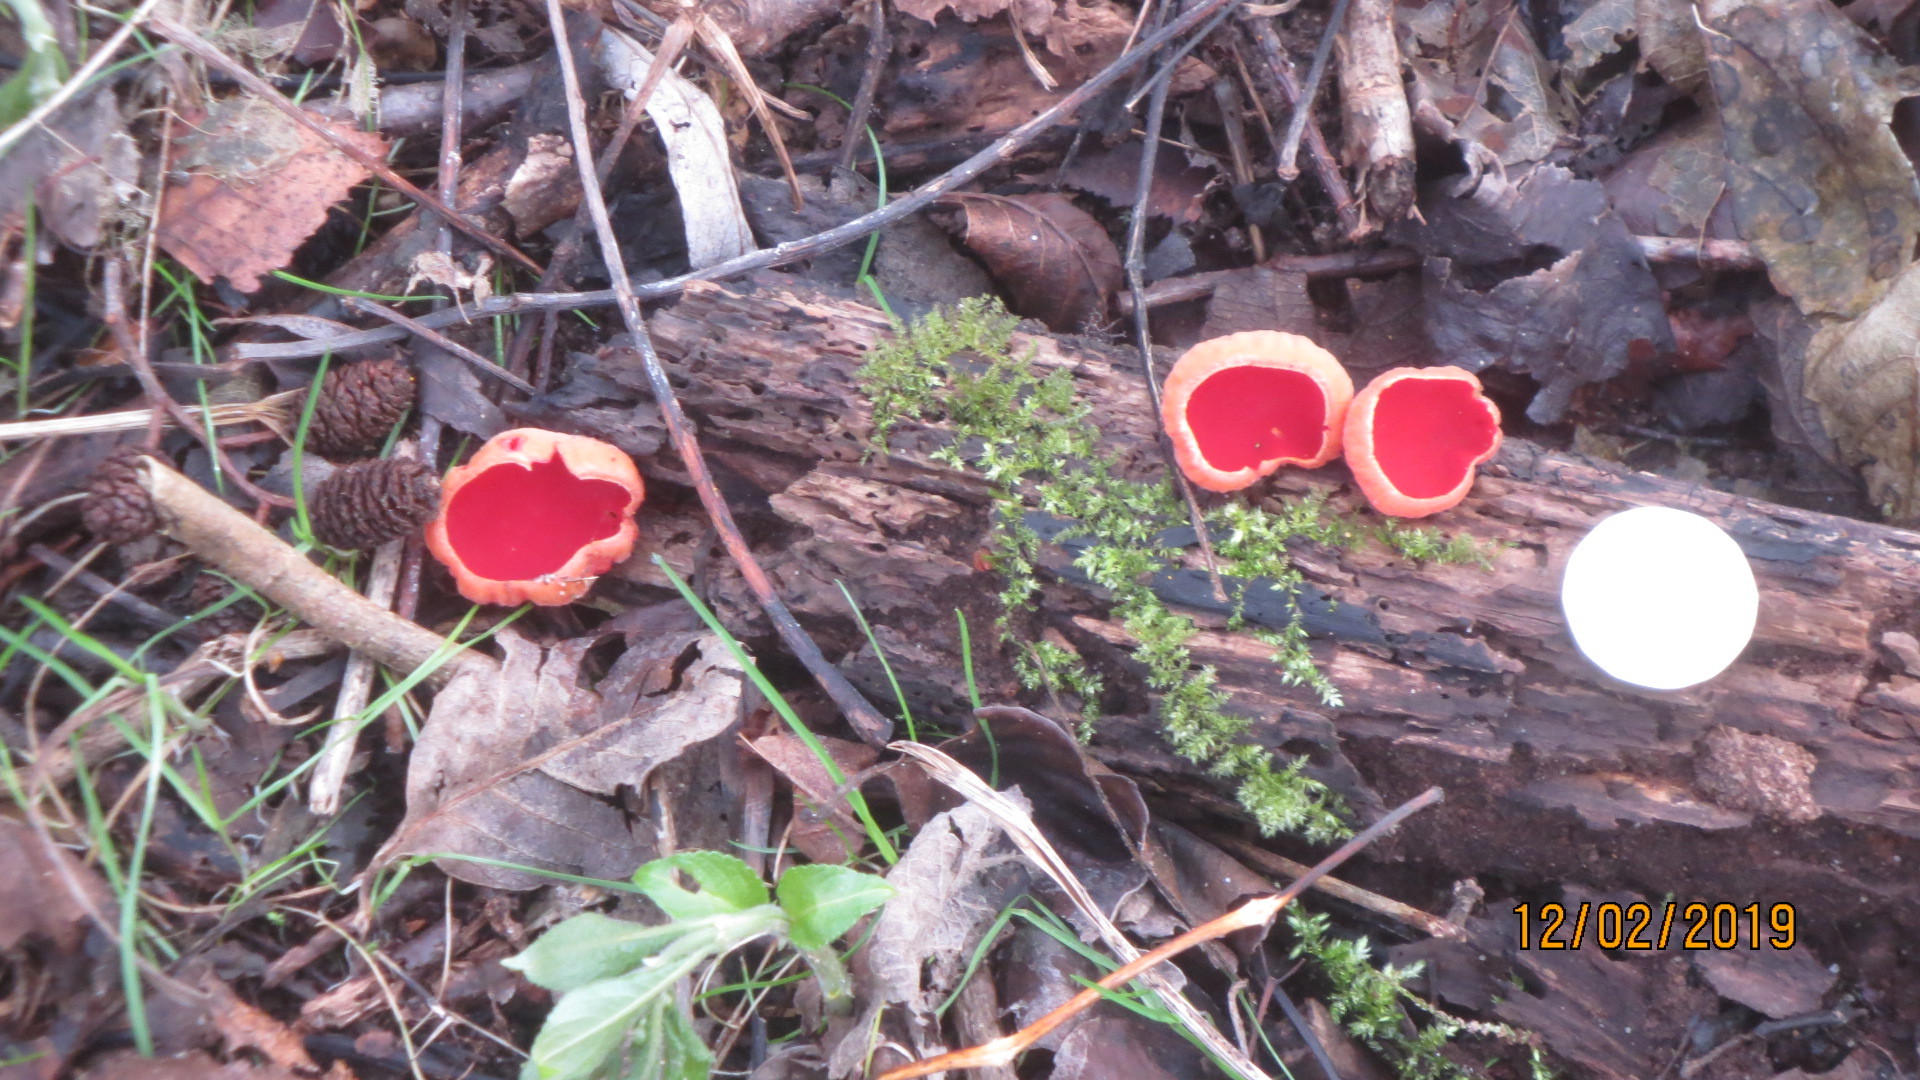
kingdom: Fungi
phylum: Ascomycota
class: Pezizomycetes
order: Pezizales
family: Sarcoscyphaceae
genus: Sarcoscypha
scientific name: Sarcoscypha
